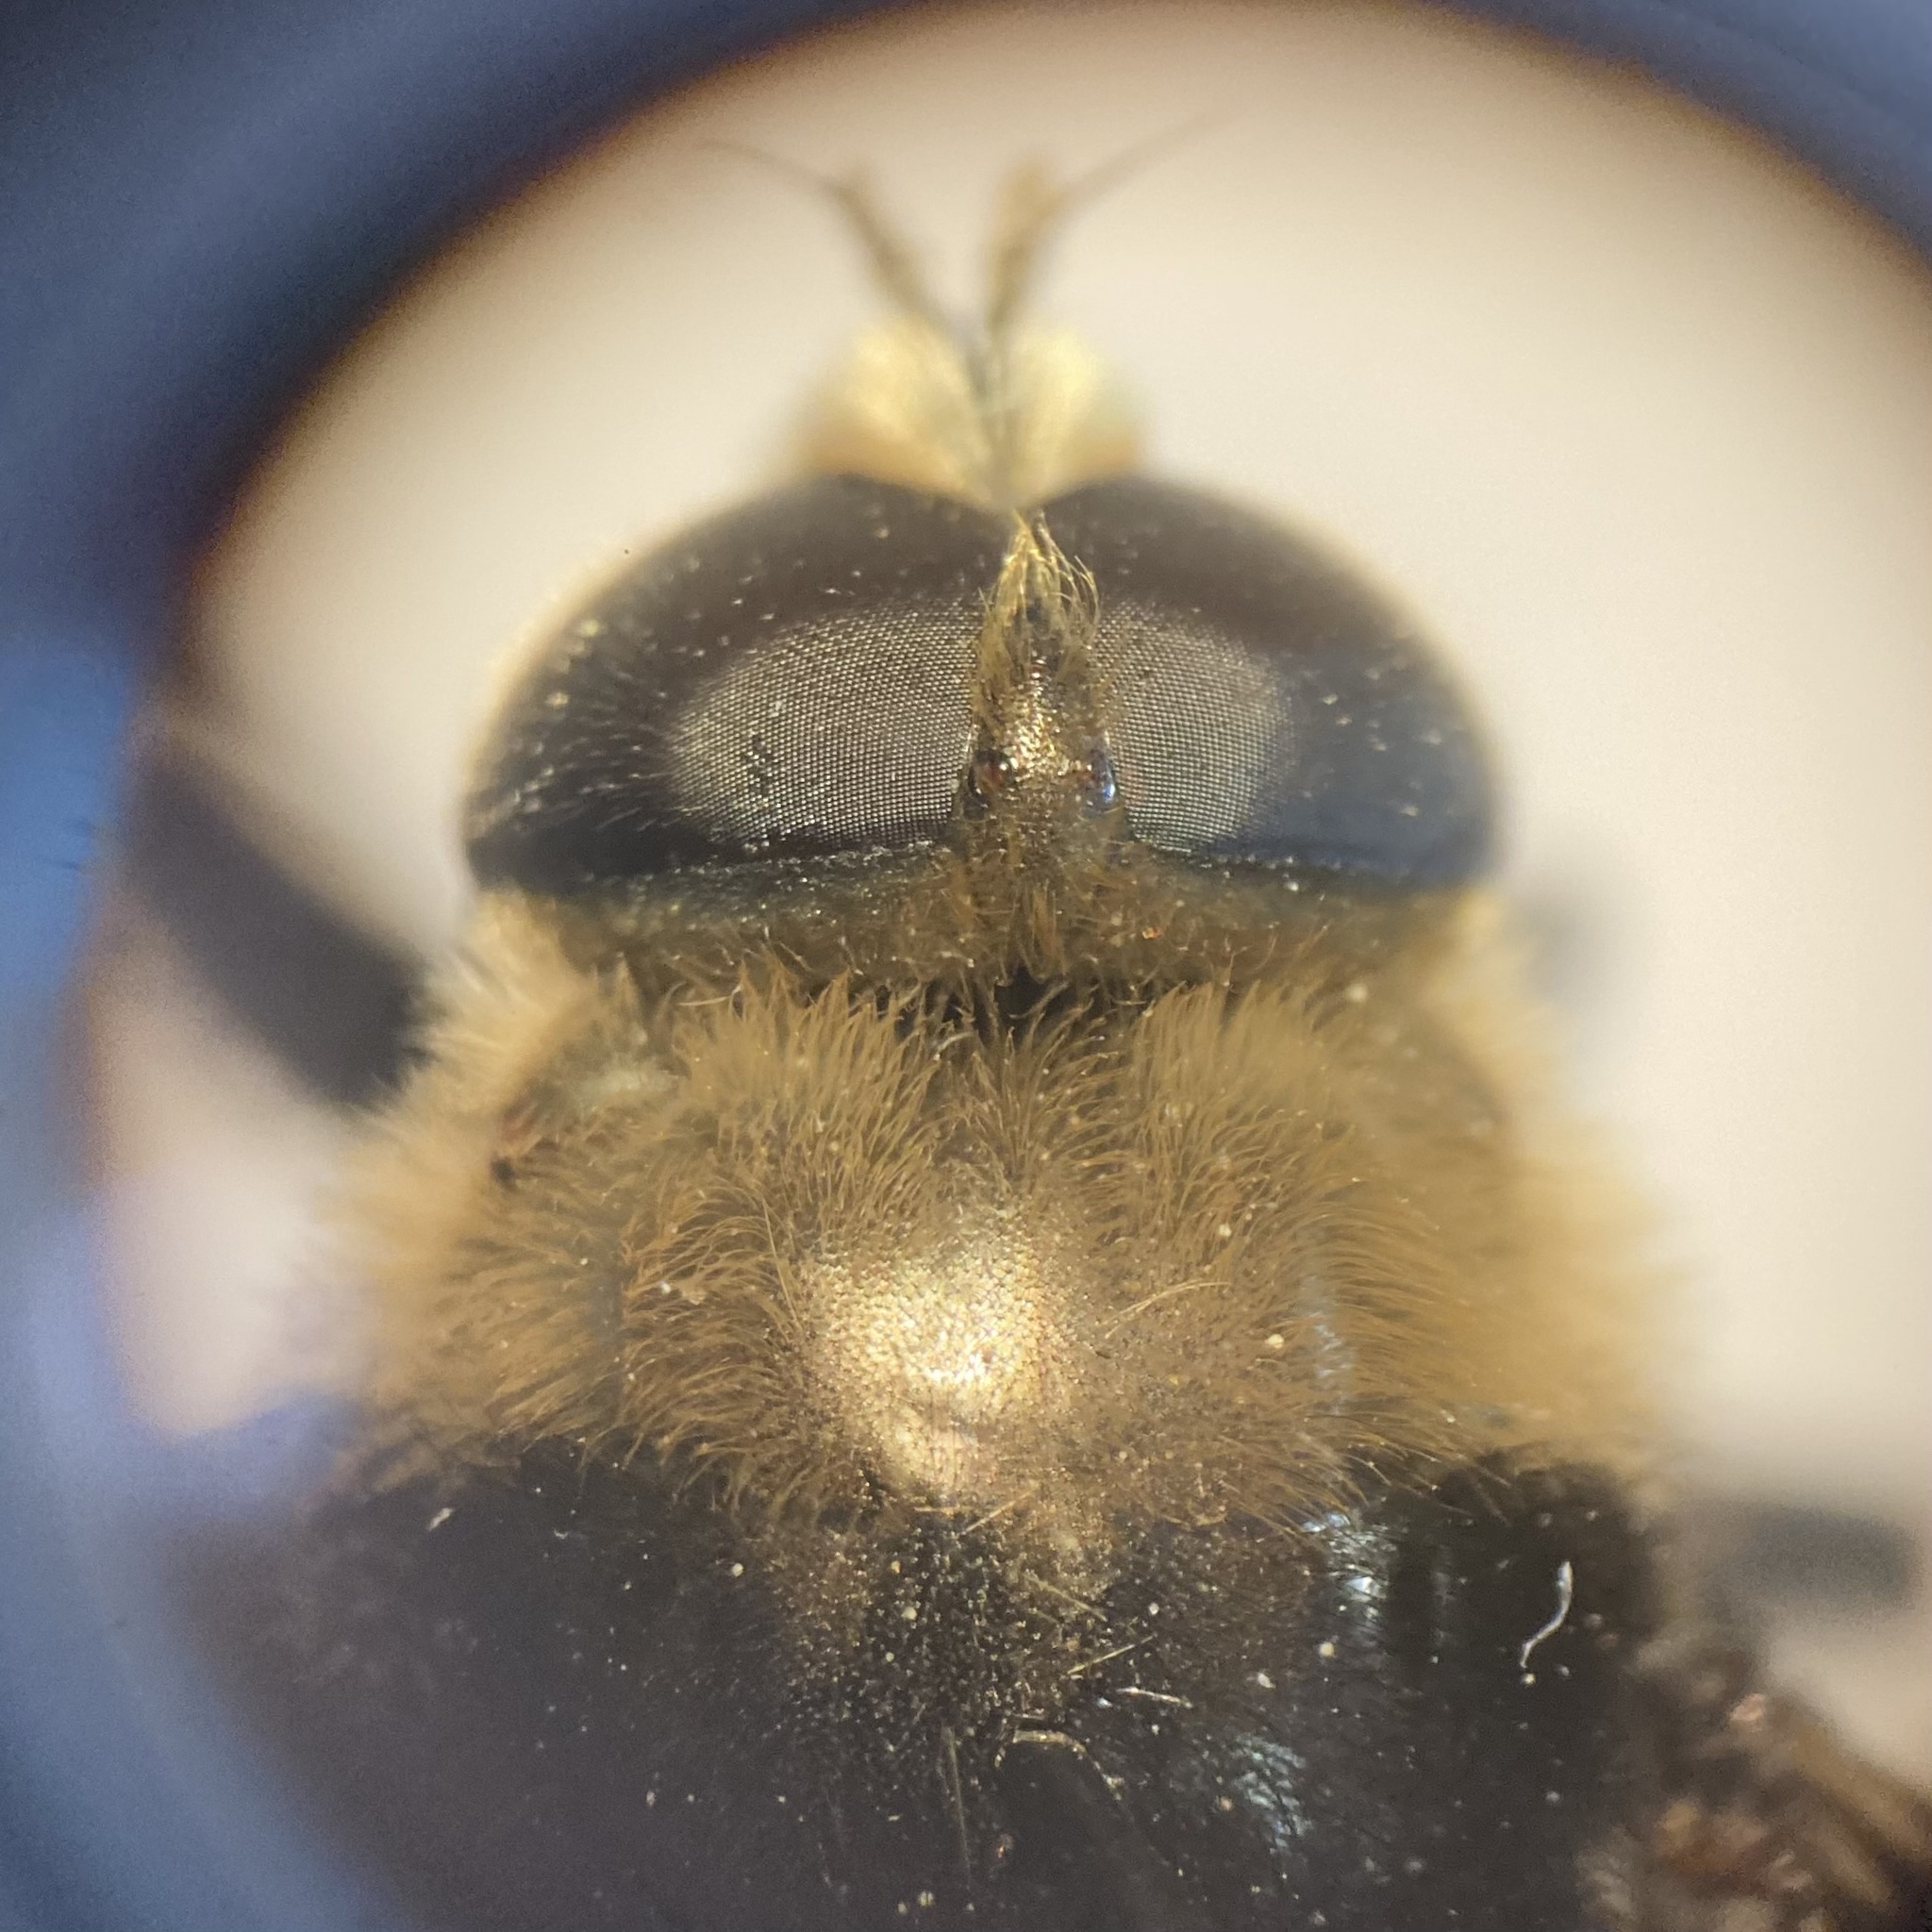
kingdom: Animalia
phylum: Arthropoda
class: Insecta
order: Diptera
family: Syrphidae
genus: Merodon
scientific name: Merodon equestris
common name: Greater bulb-fly
